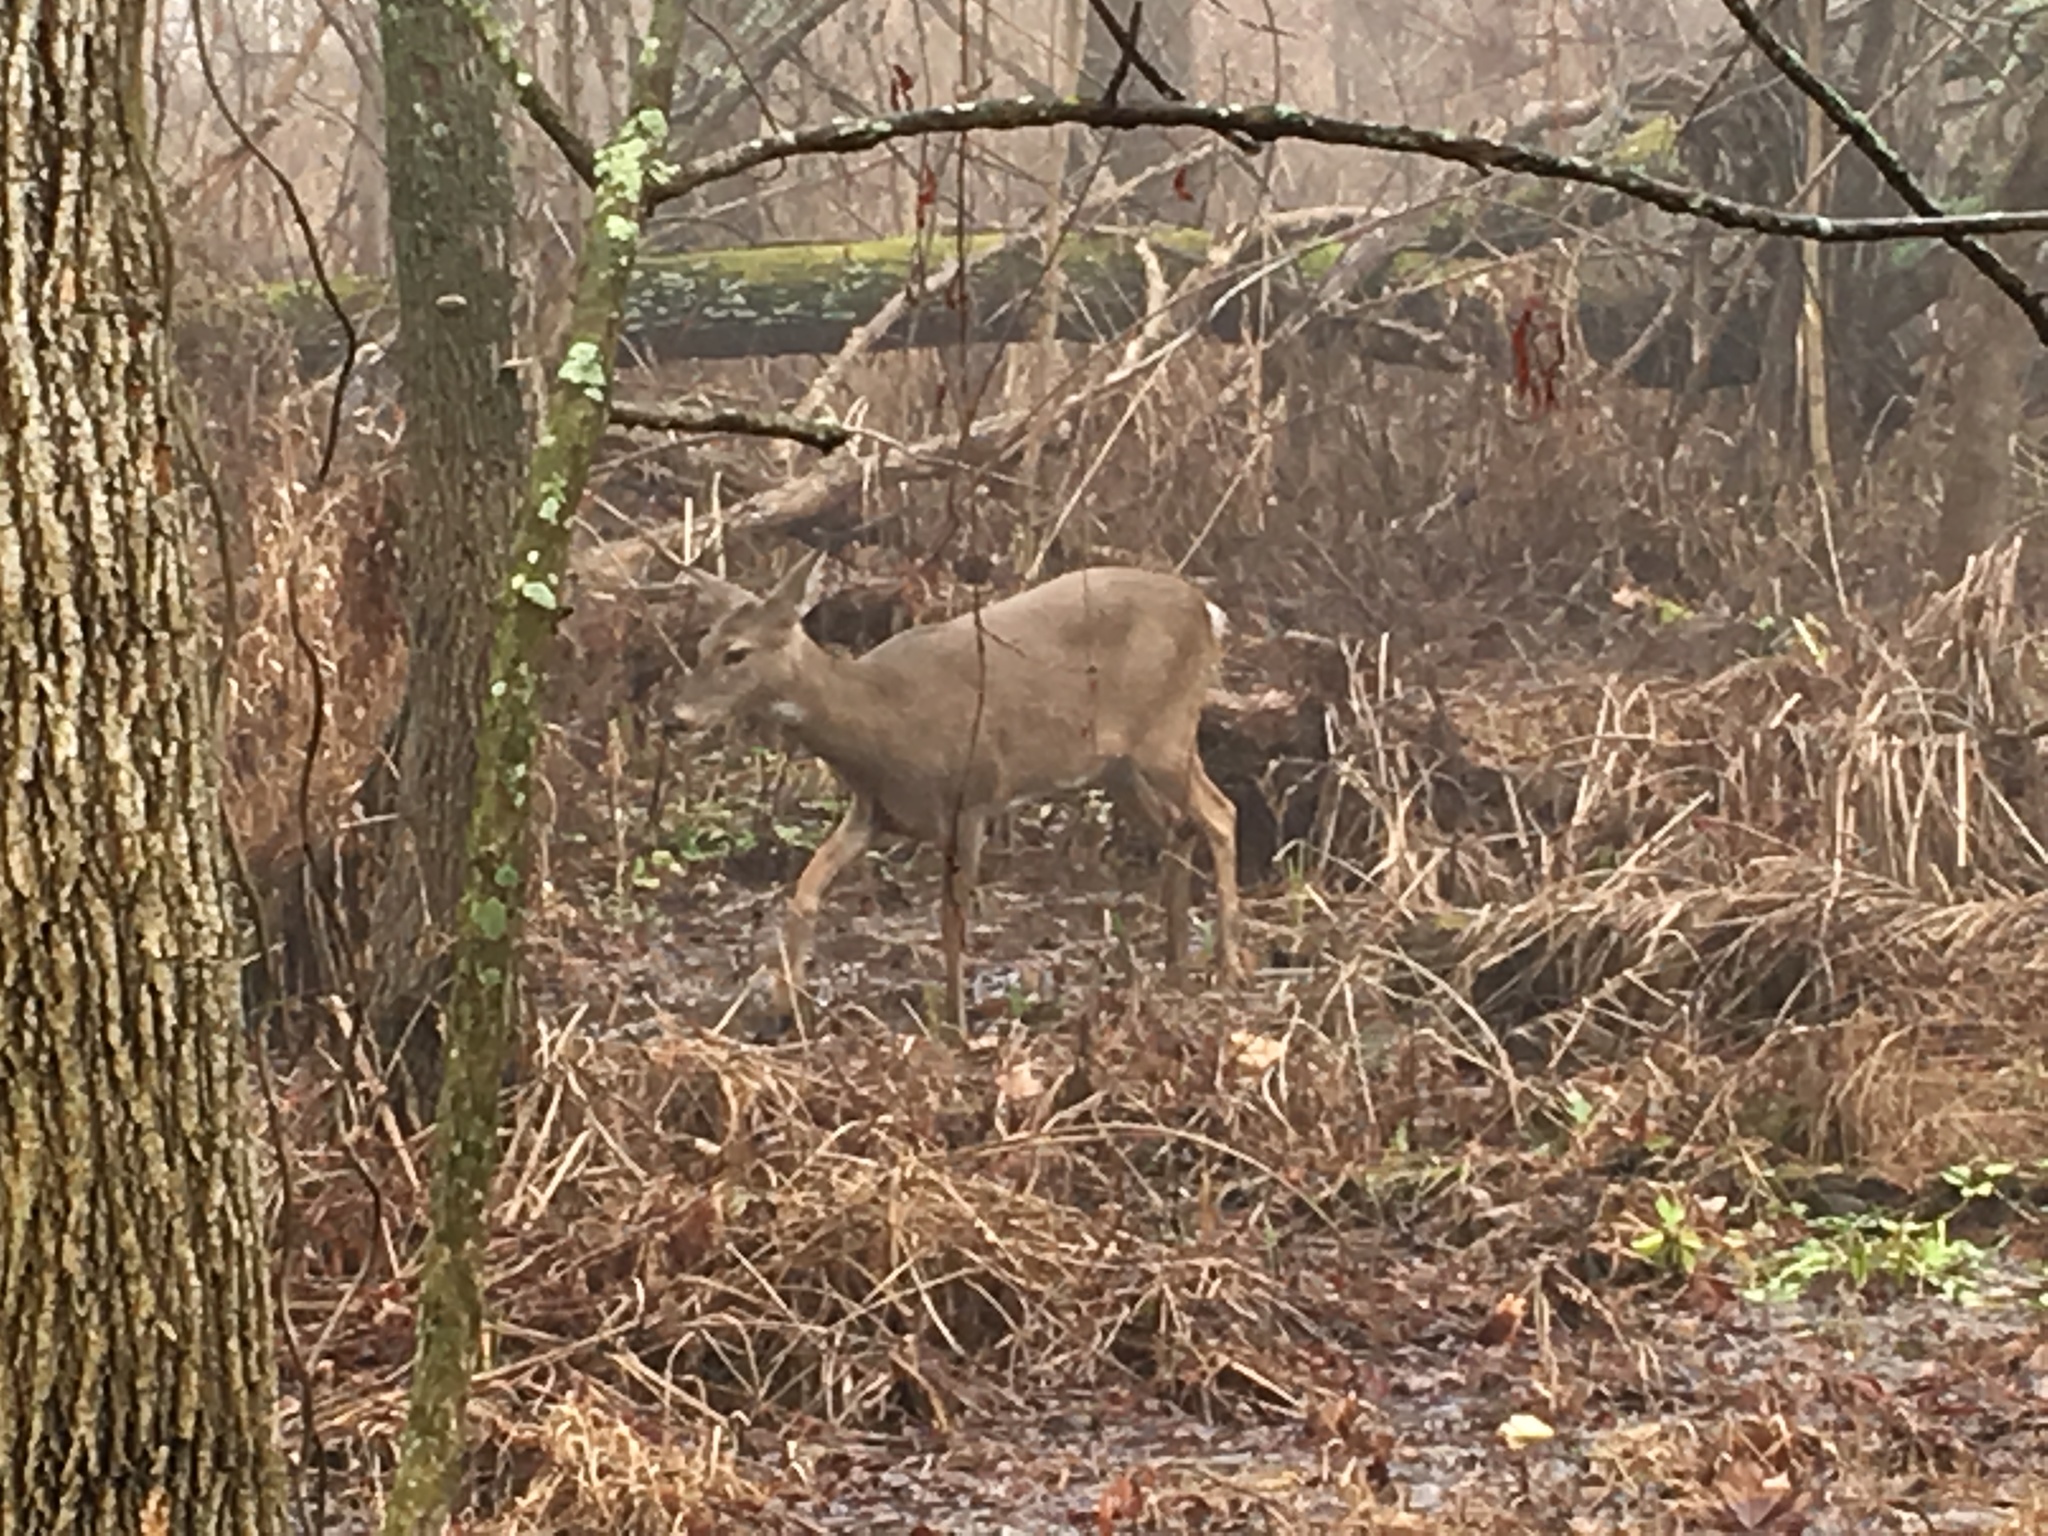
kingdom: Animalia
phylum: Chordata
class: Mammalia
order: Artiodactyla
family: Cervidae
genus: Odocoileus
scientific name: Odocoileus virginianus
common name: White-tailed deer
